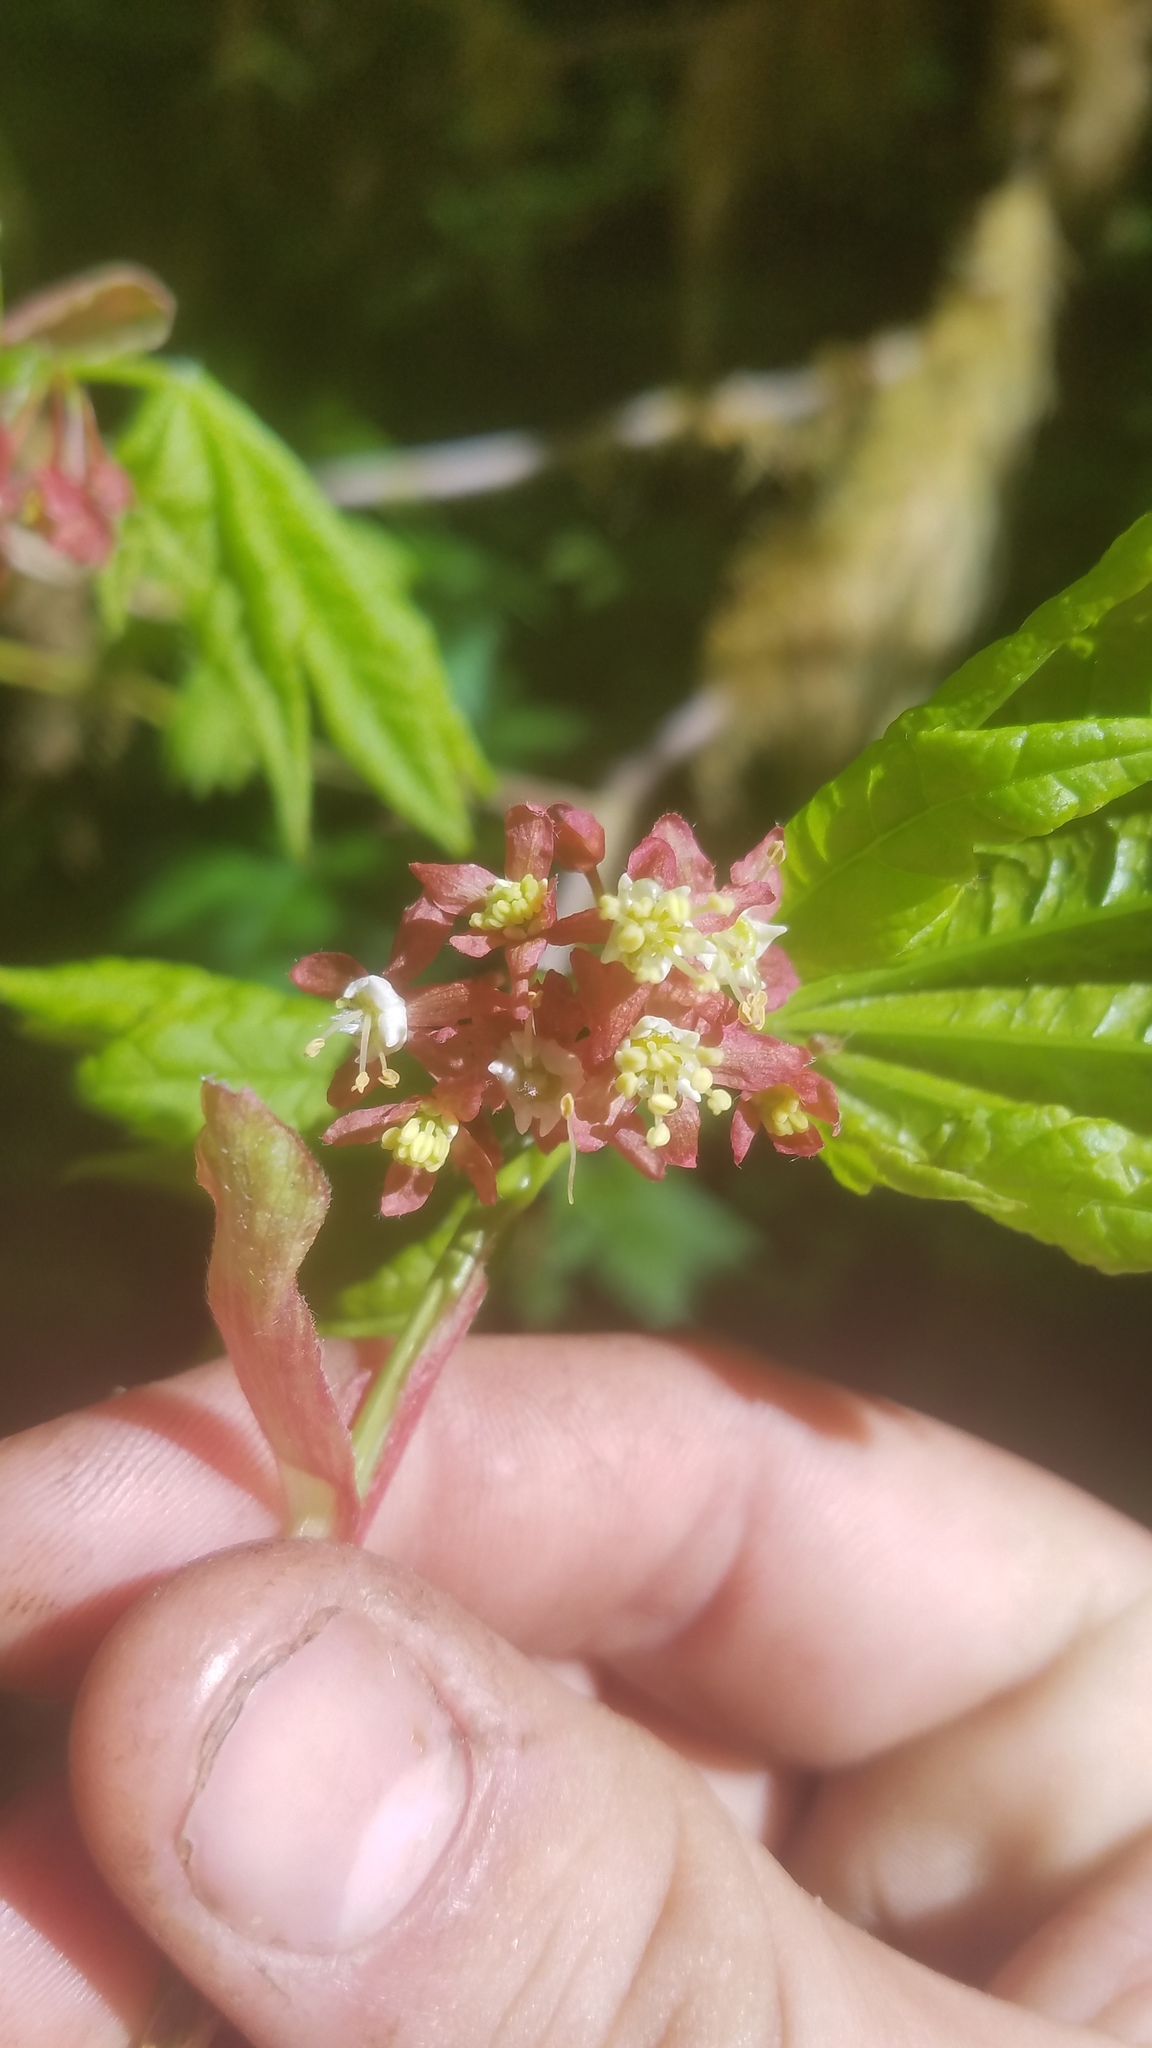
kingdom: Plantae
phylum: Tracheophyta
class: Magnoliopsida
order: Sapindales
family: Sapindaceae
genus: Acer
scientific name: Acer circinatum
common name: Vine maple
